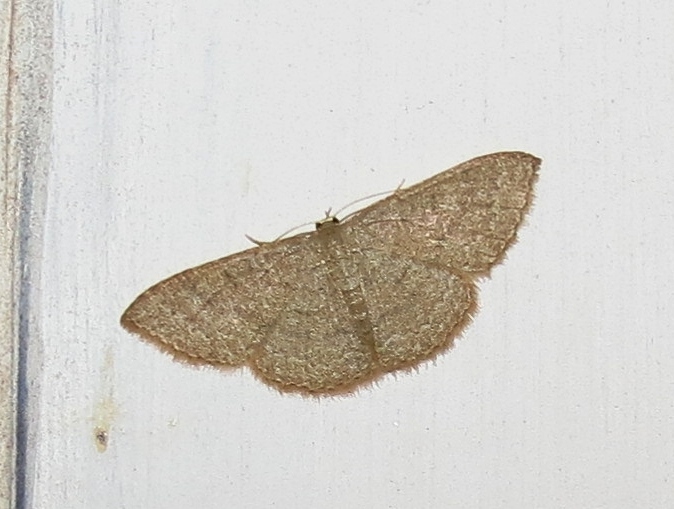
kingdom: Animalia
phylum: Arthropoda
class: Insecta
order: Lepidoptera
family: Geometridae
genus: Pleuroprucha
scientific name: Pleuroprucha insulsaria
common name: Common tan wave
